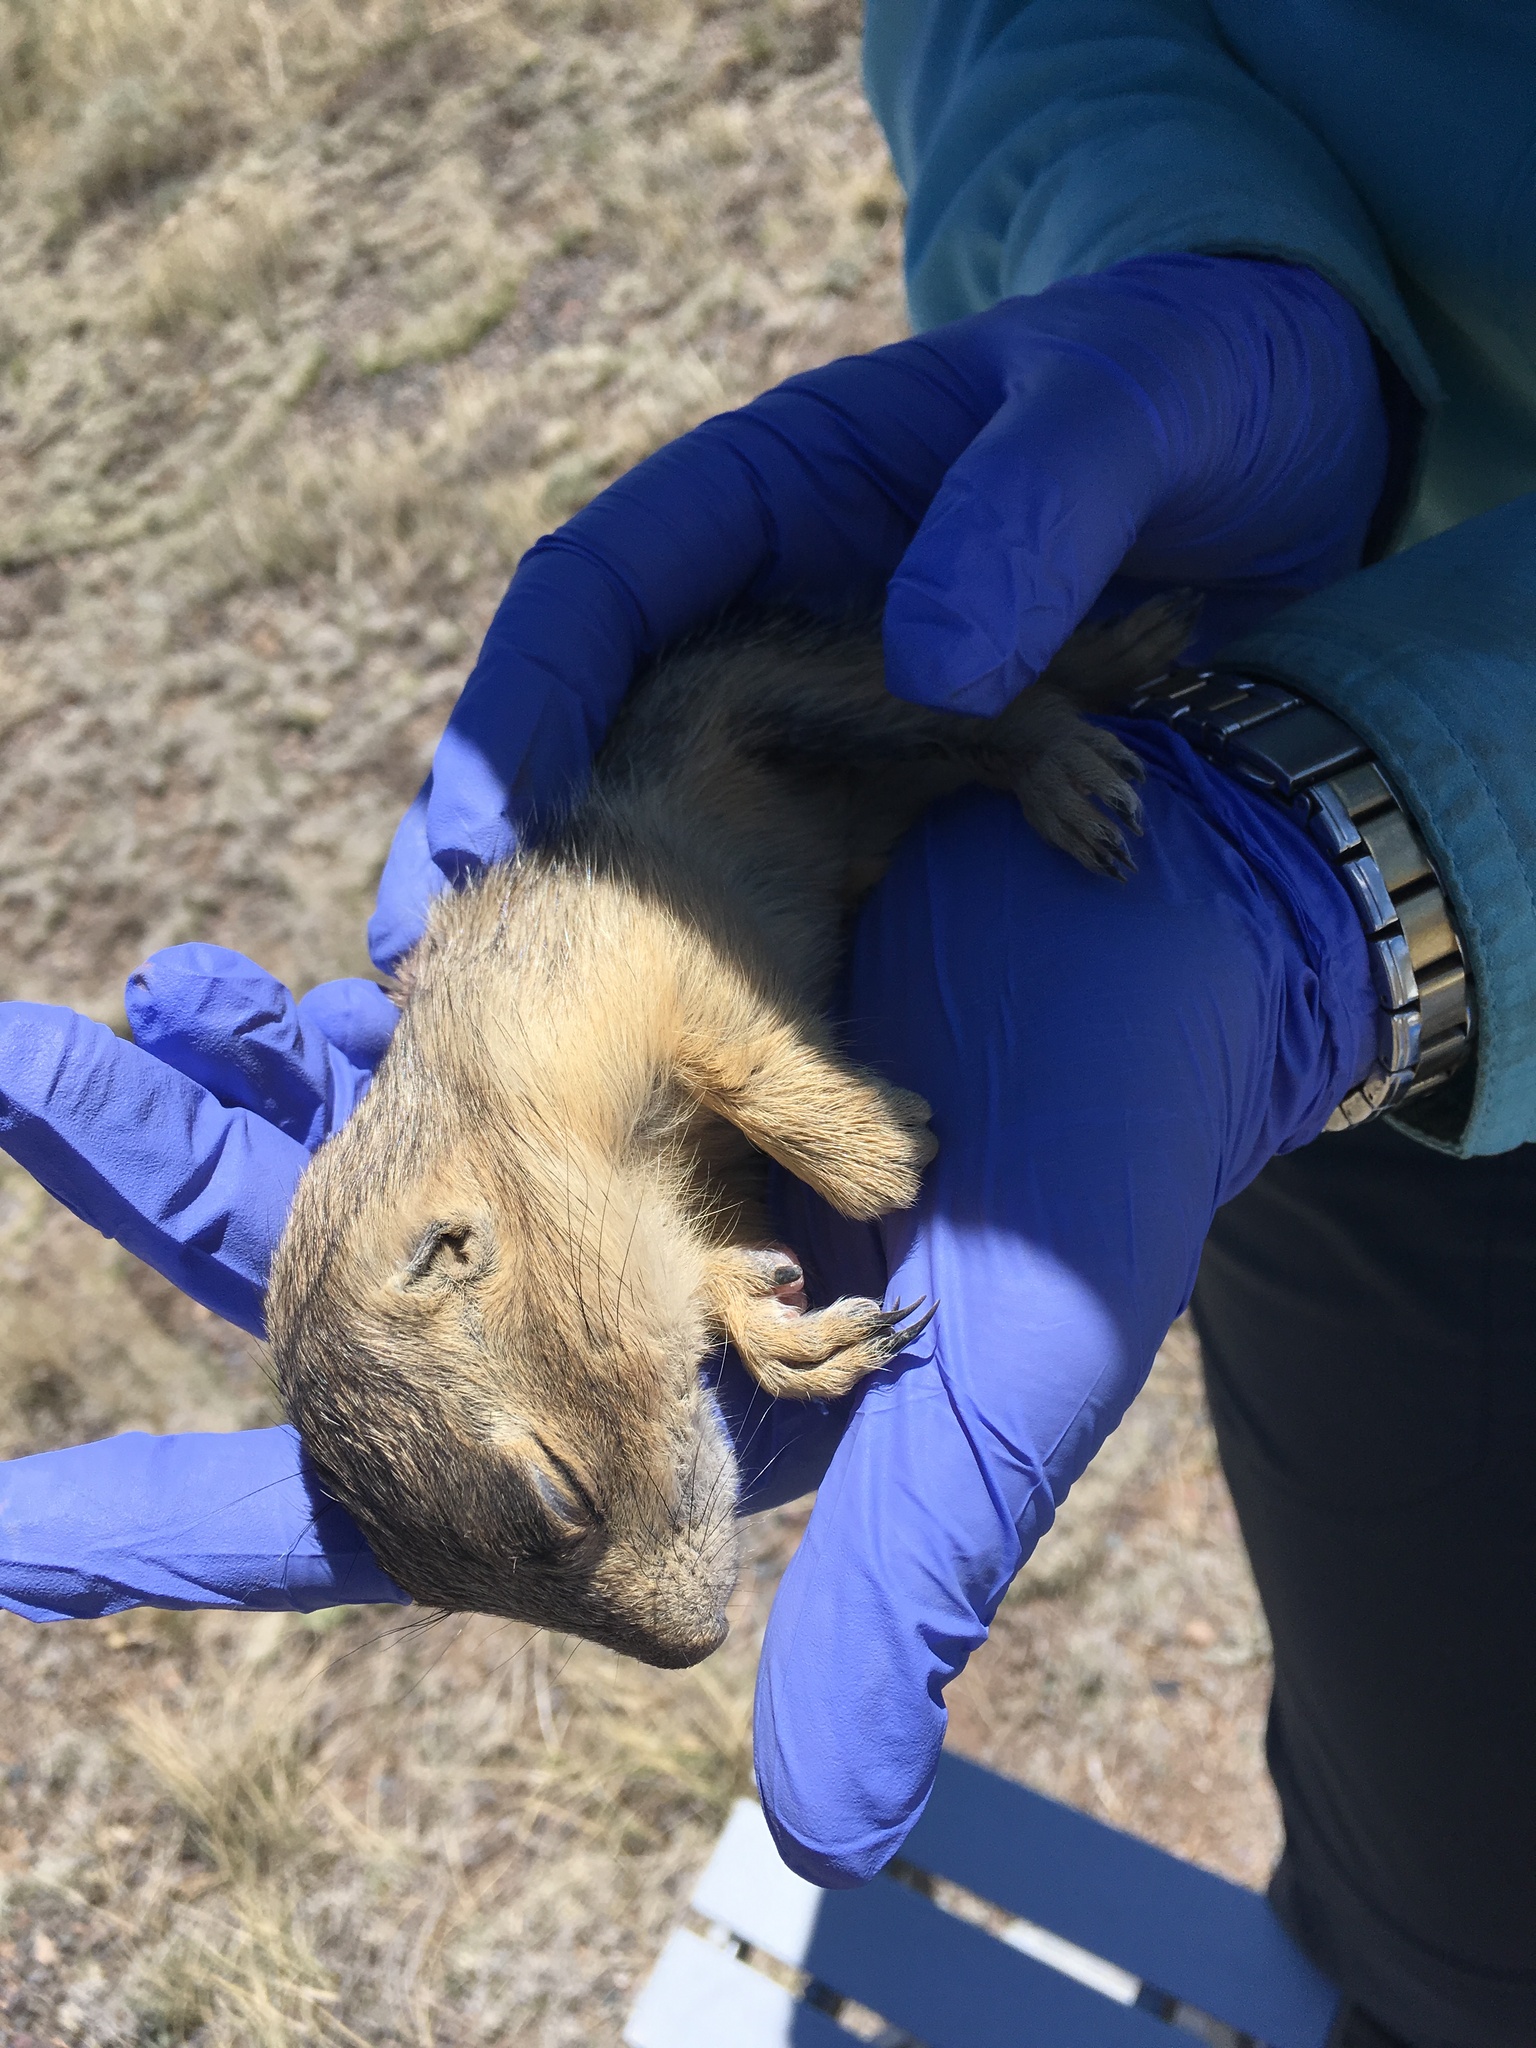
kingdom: Animalia
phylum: Chordata
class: Mammalia
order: Rodentia
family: Sciuridae
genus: Cynomys
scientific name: Cynomys gunnisoni
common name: Gunnison's prairie dog
